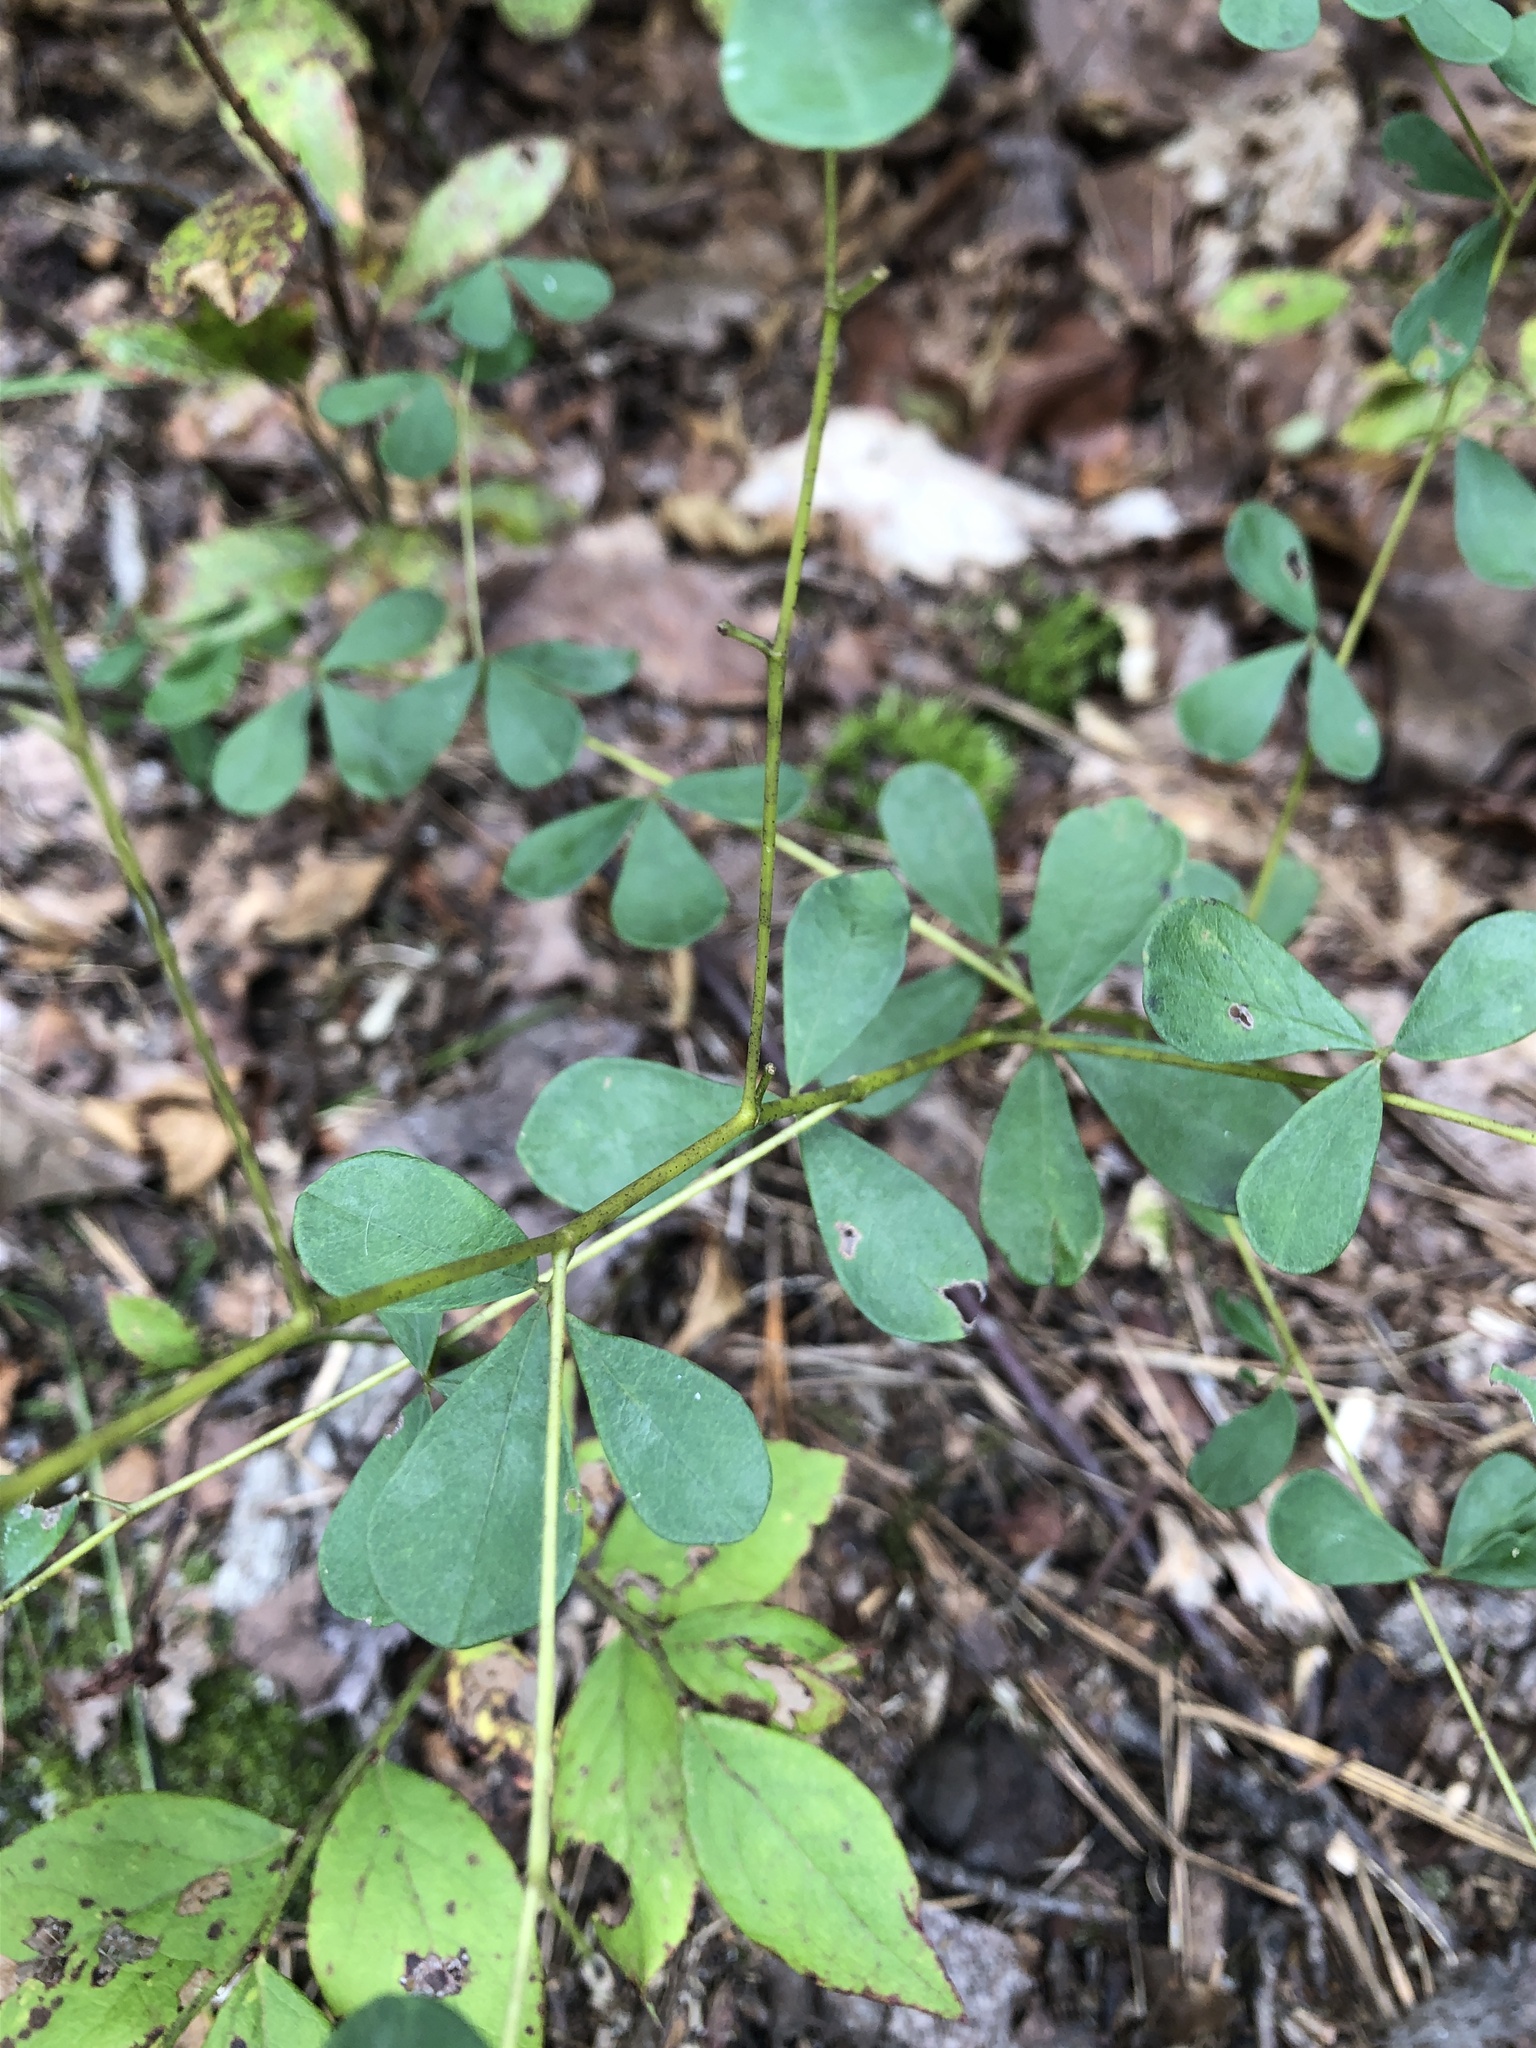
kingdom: Plantae
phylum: Tracheophyta
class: Magnoliopsida
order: Fabales
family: Fabaceae
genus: Baptisia
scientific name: Baptisia tinctoria
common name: Wild indigo
